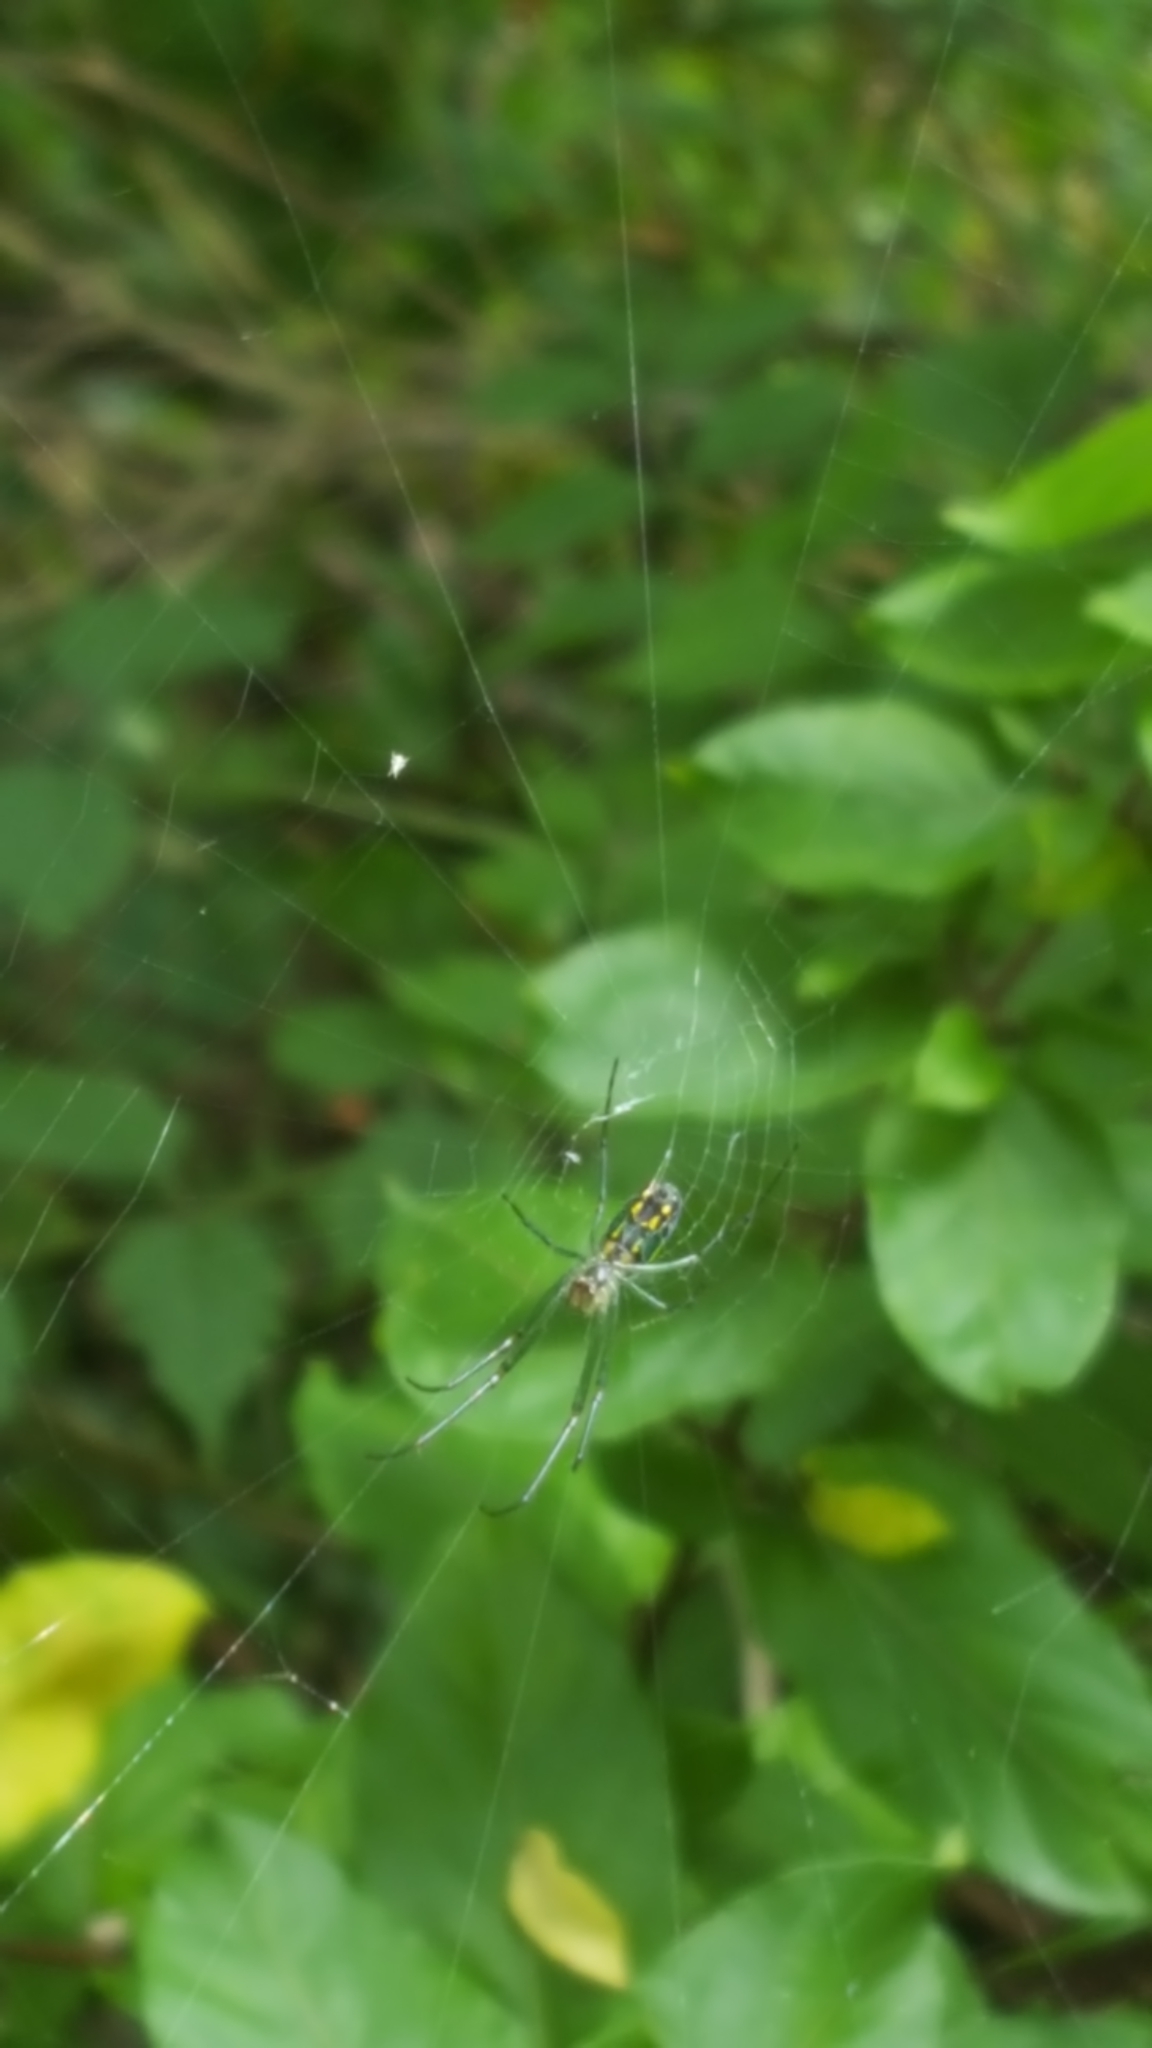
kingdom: Animalia
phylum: Arthropoda
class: Arachnida
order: Araneae
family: Tetragnathidae
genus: Leucauge
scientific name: Leucauge venusta
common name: Longjawed orb weavers
